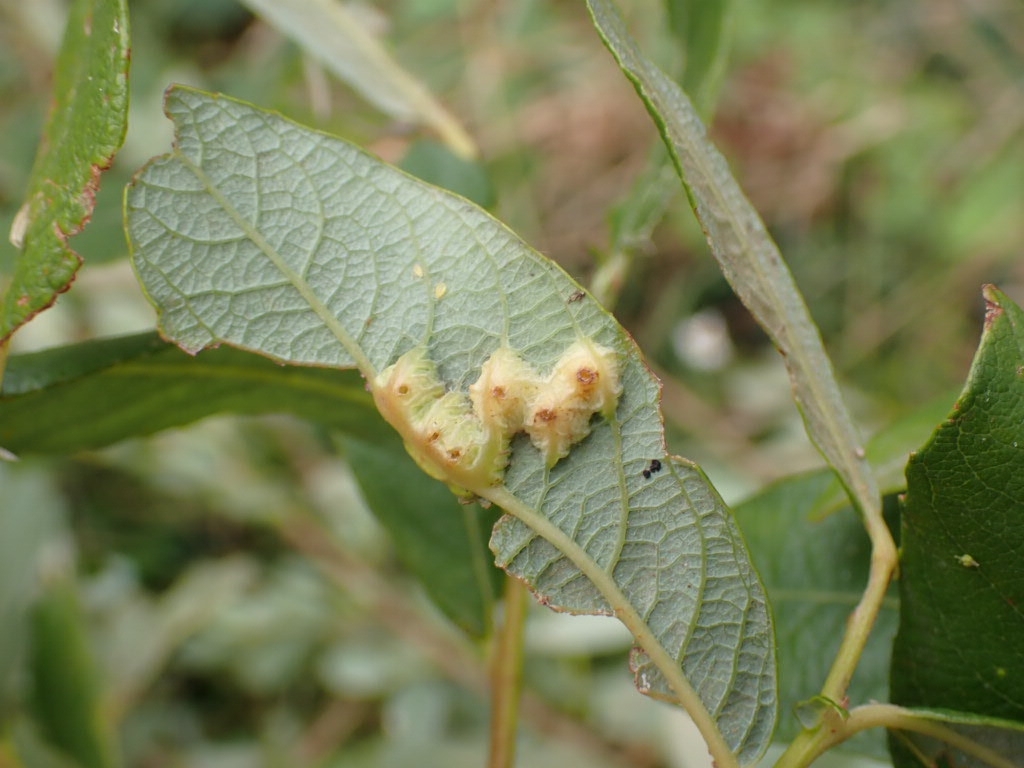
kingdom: Animalia
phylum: Arthropoda
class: Insecta
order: Diptera
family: Cecidomyiidae
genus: Iteomyia
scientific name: Iteomyia major
